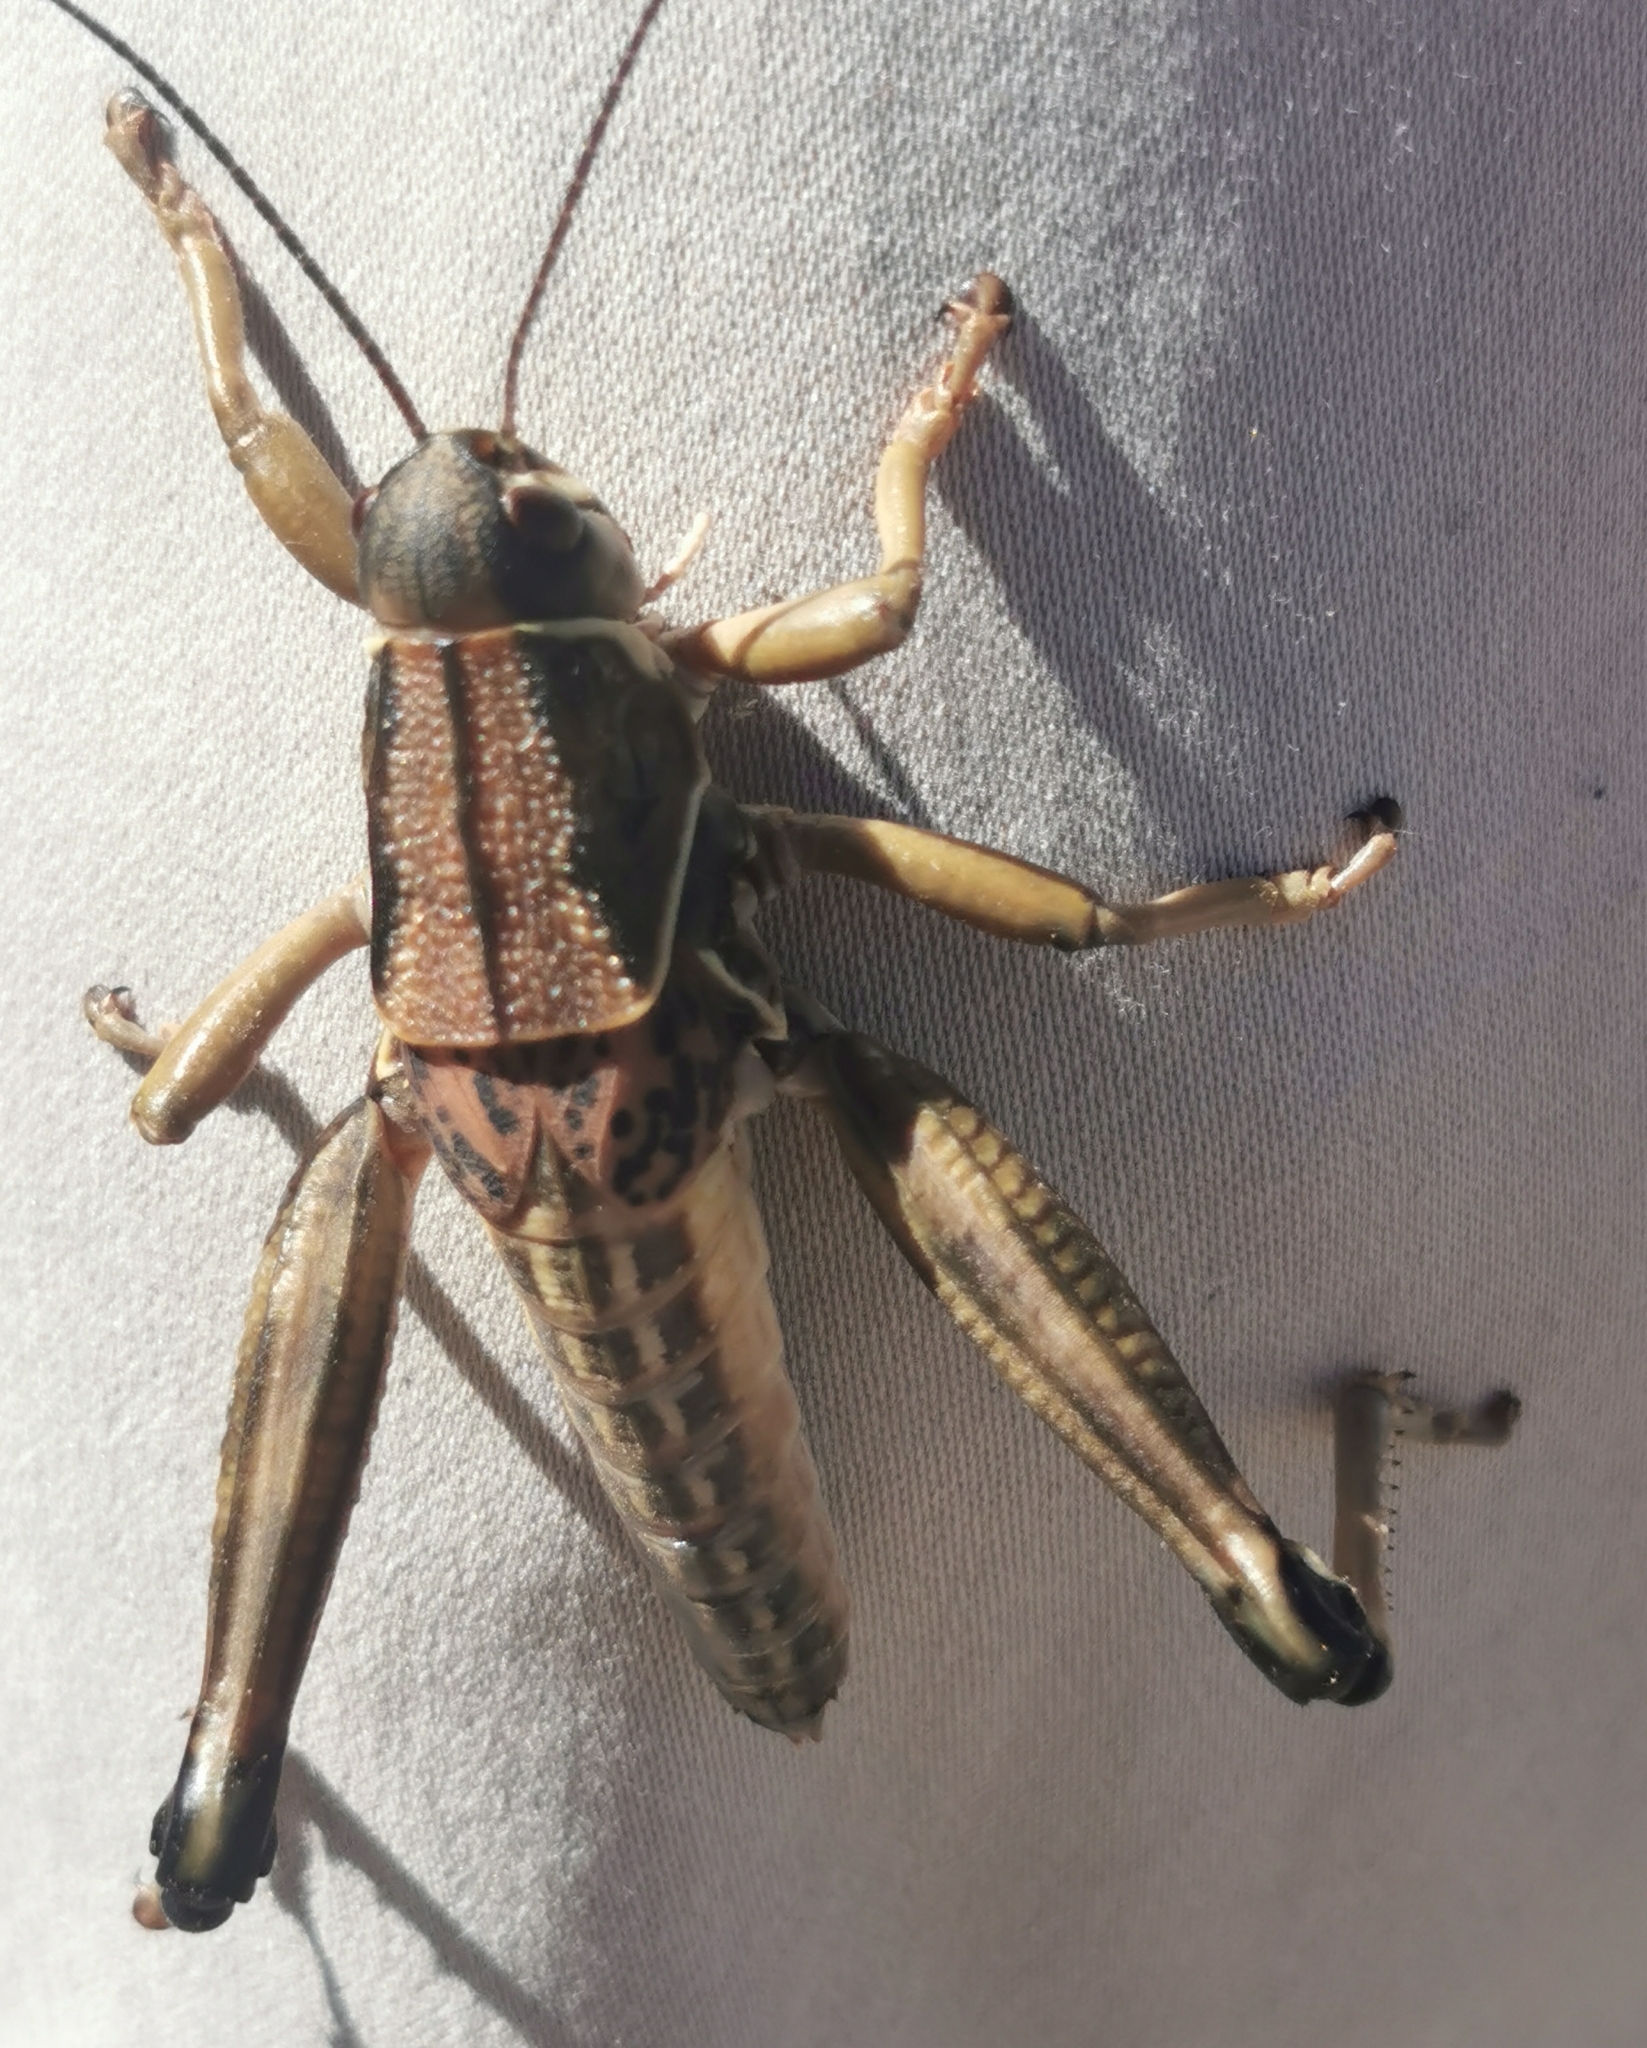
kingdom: Animalia
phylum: Arthropoda
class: Insecta
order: Orthoptera
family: Romaleidae
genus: Brachystola
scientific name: Brachystola magna
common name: Plains lubber grasshopper
